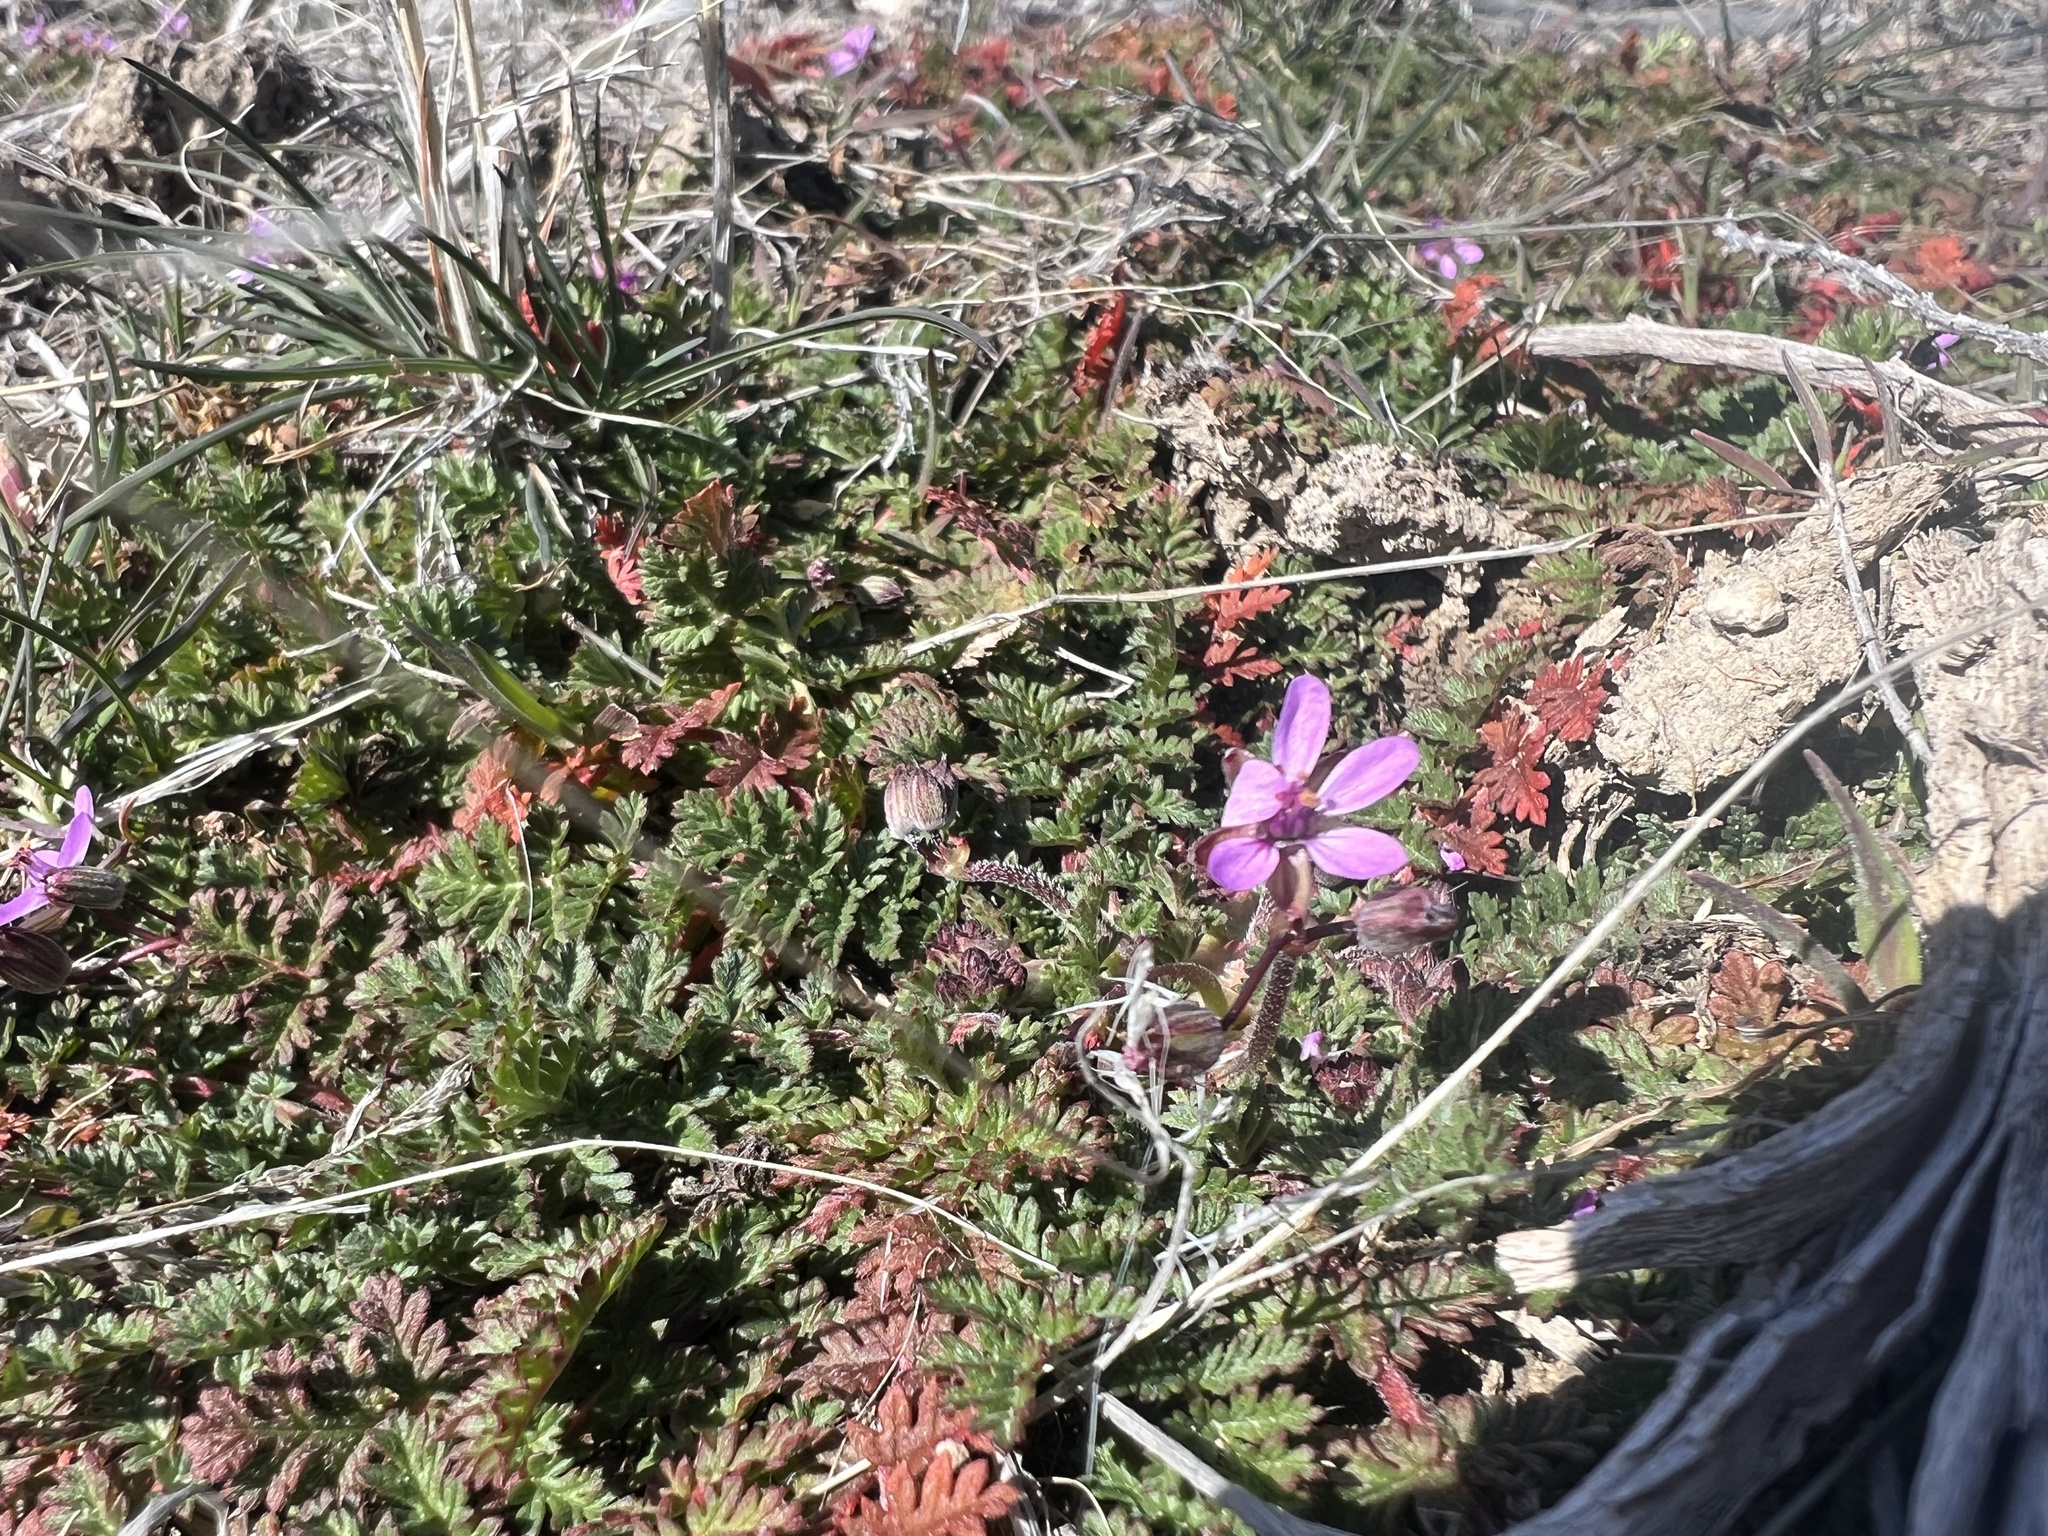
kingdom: Plantae
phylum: Tracheophyta
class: Magnoliopsida
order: Geraniales
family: Geraniaceae
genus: Erodium
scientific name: Erodium cicutarium
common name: Common stork's-bill
